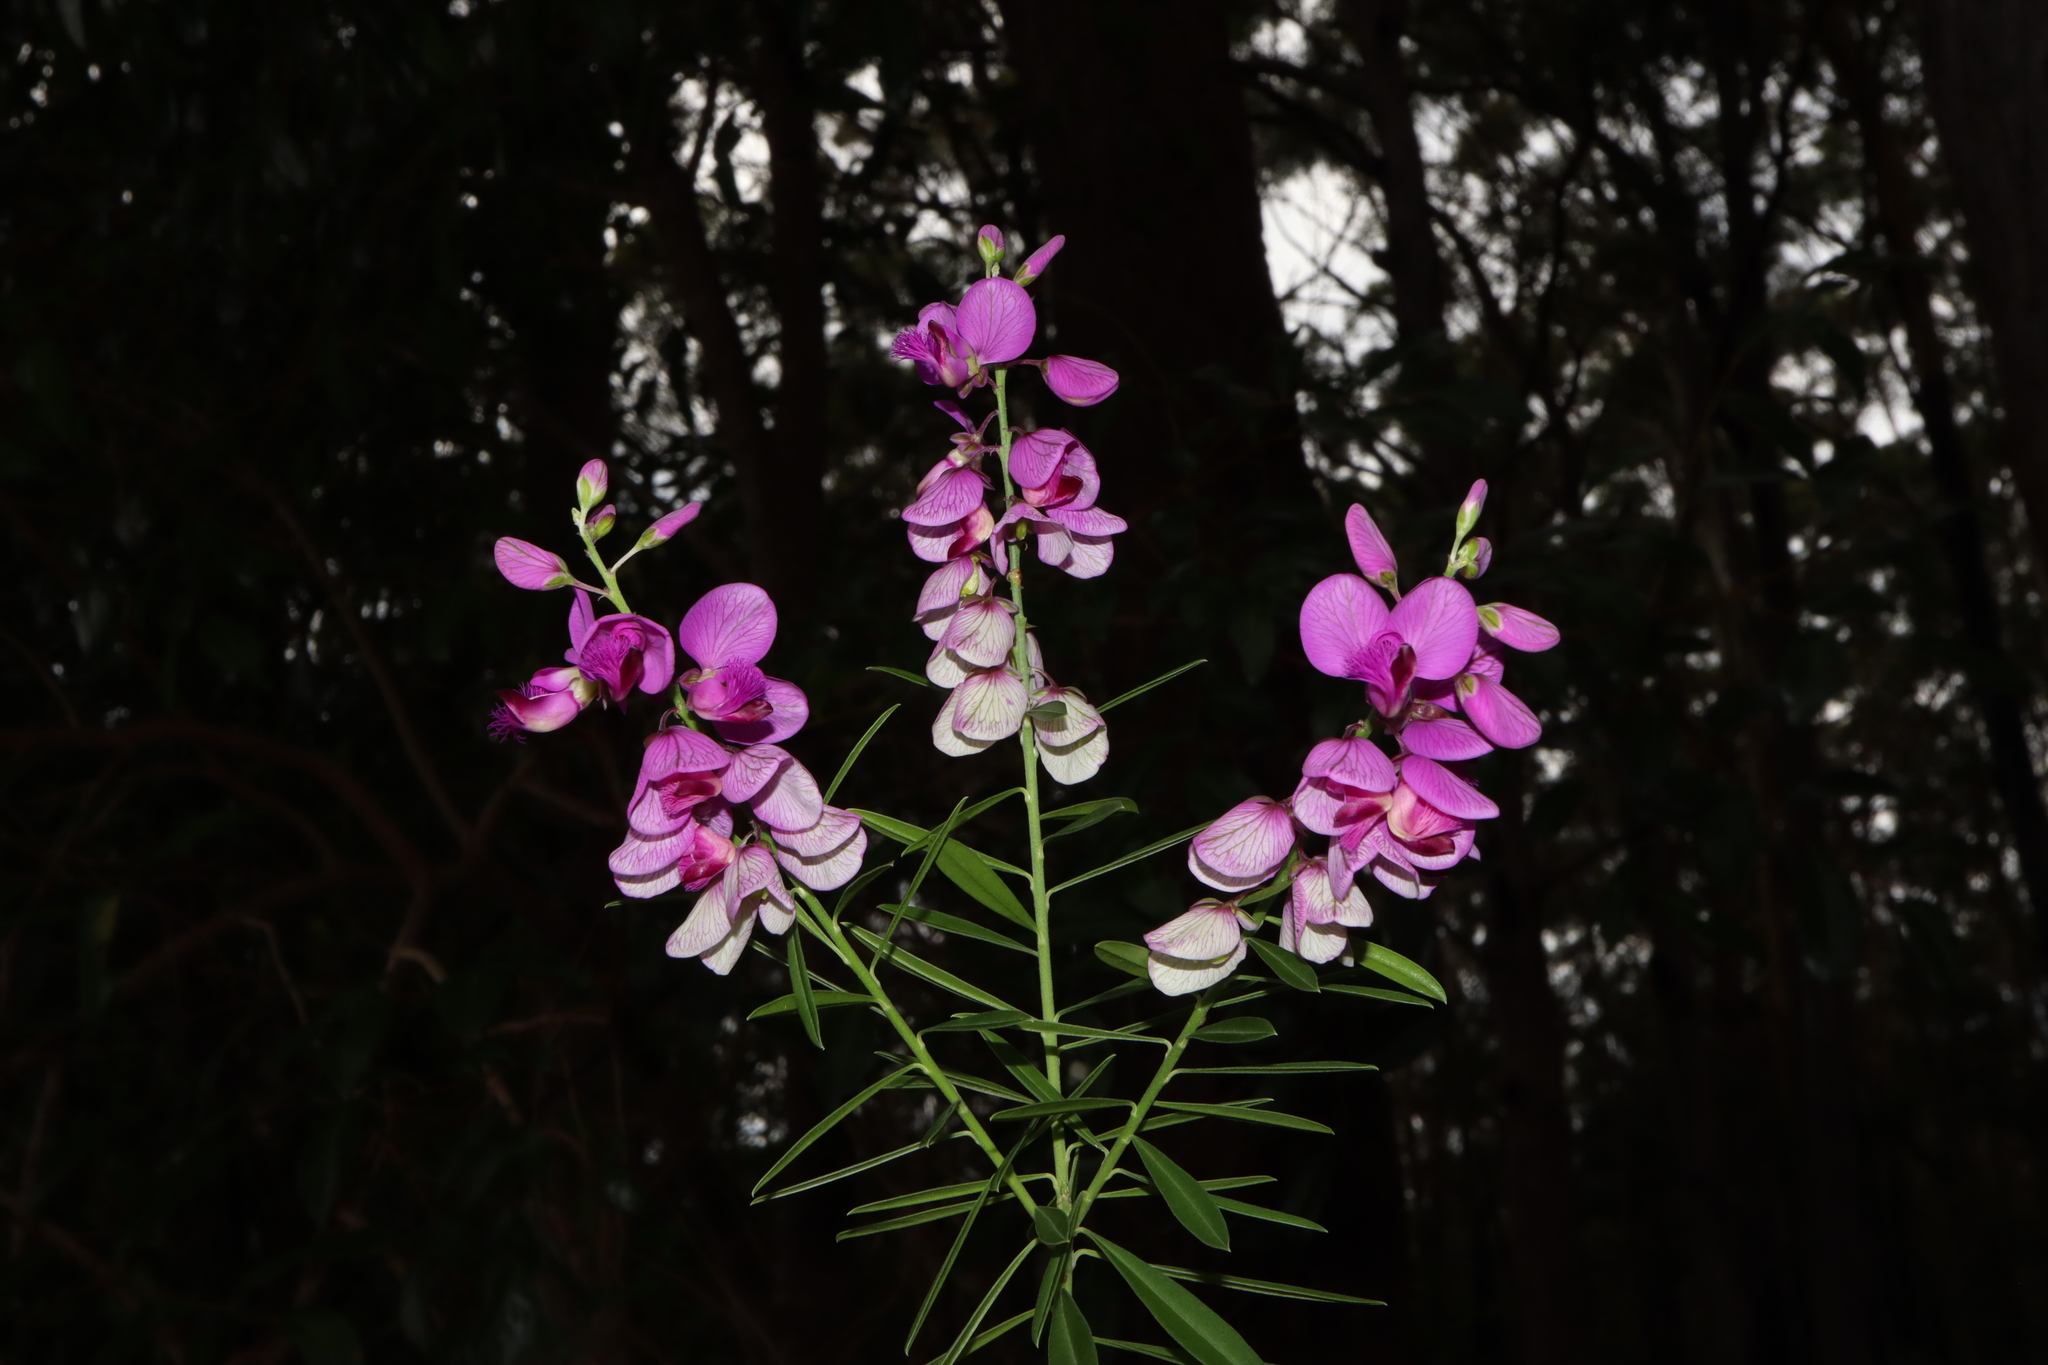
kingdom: Plantae
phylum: Tracheophyta
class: Magnoliopsida
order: Fabales
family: Polygalaceae
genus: Polygala
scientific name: Polygala virgata
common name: Milkwort
